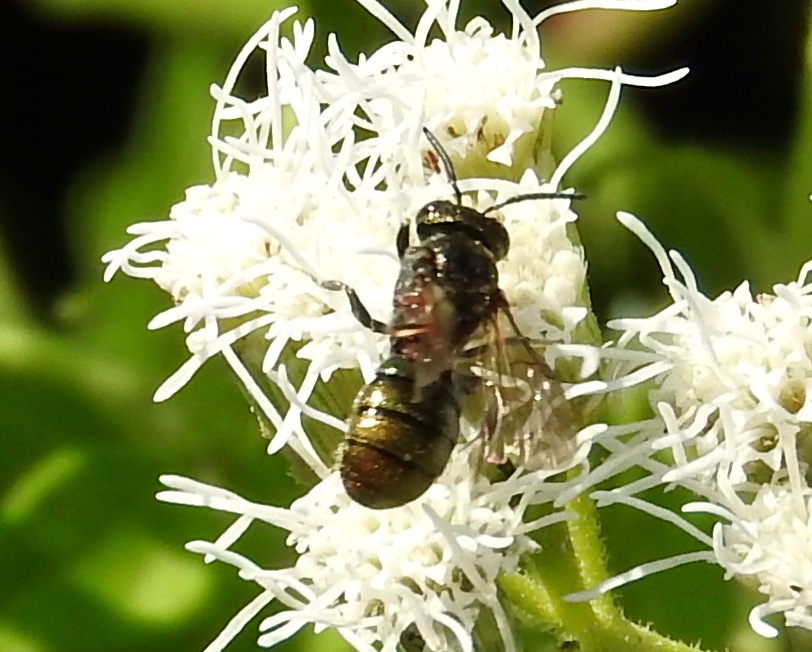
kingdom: Animalia
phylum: Arthropoda
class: Insecta
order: Hymenoptera
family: Apidae
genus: Ceratina
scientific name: Ceratina
